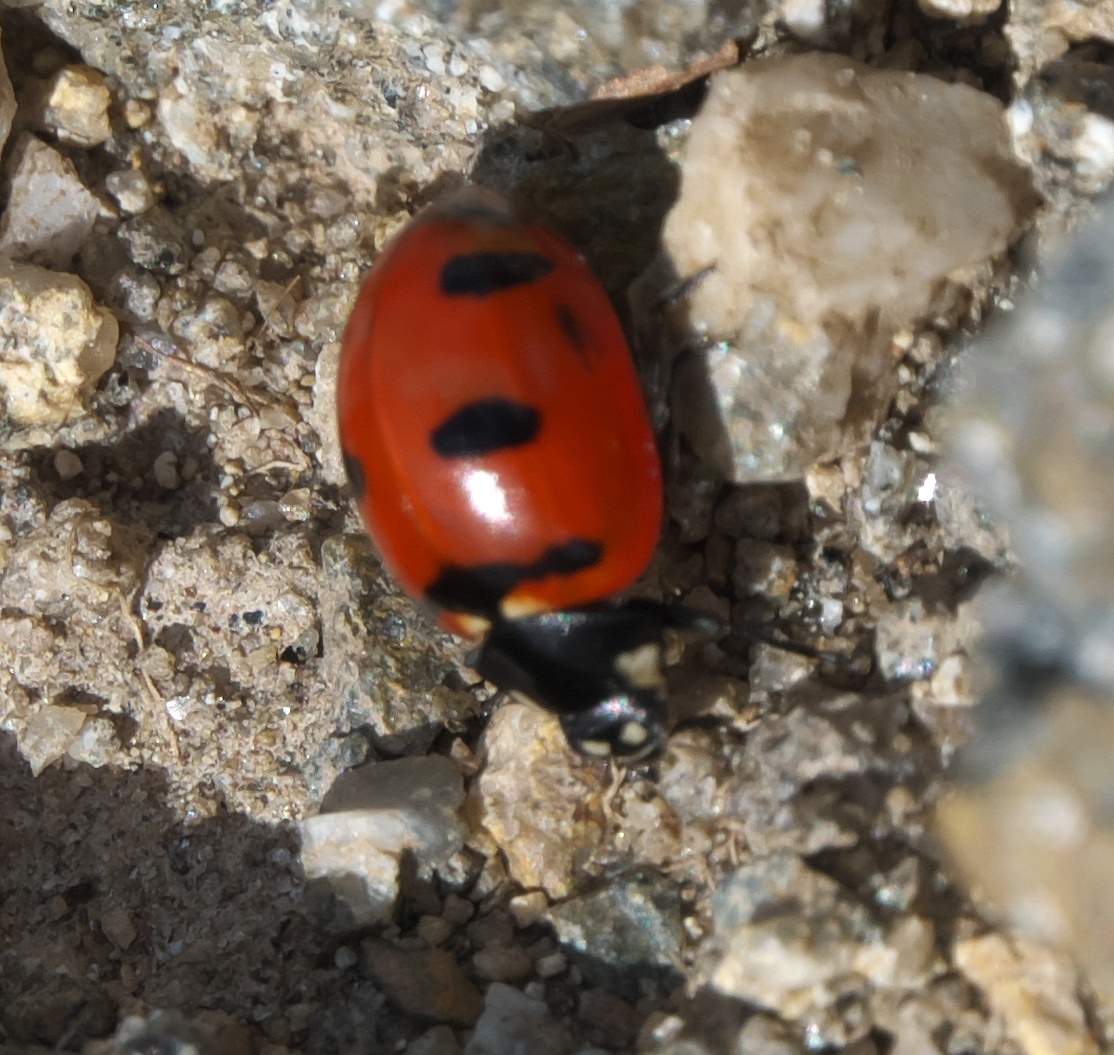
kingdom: Animalia
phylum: Arthropoda
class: Insecta
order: Coleoptera
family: Coccinellidae
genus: Coccinella
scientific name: Coccinella transversoguttata
